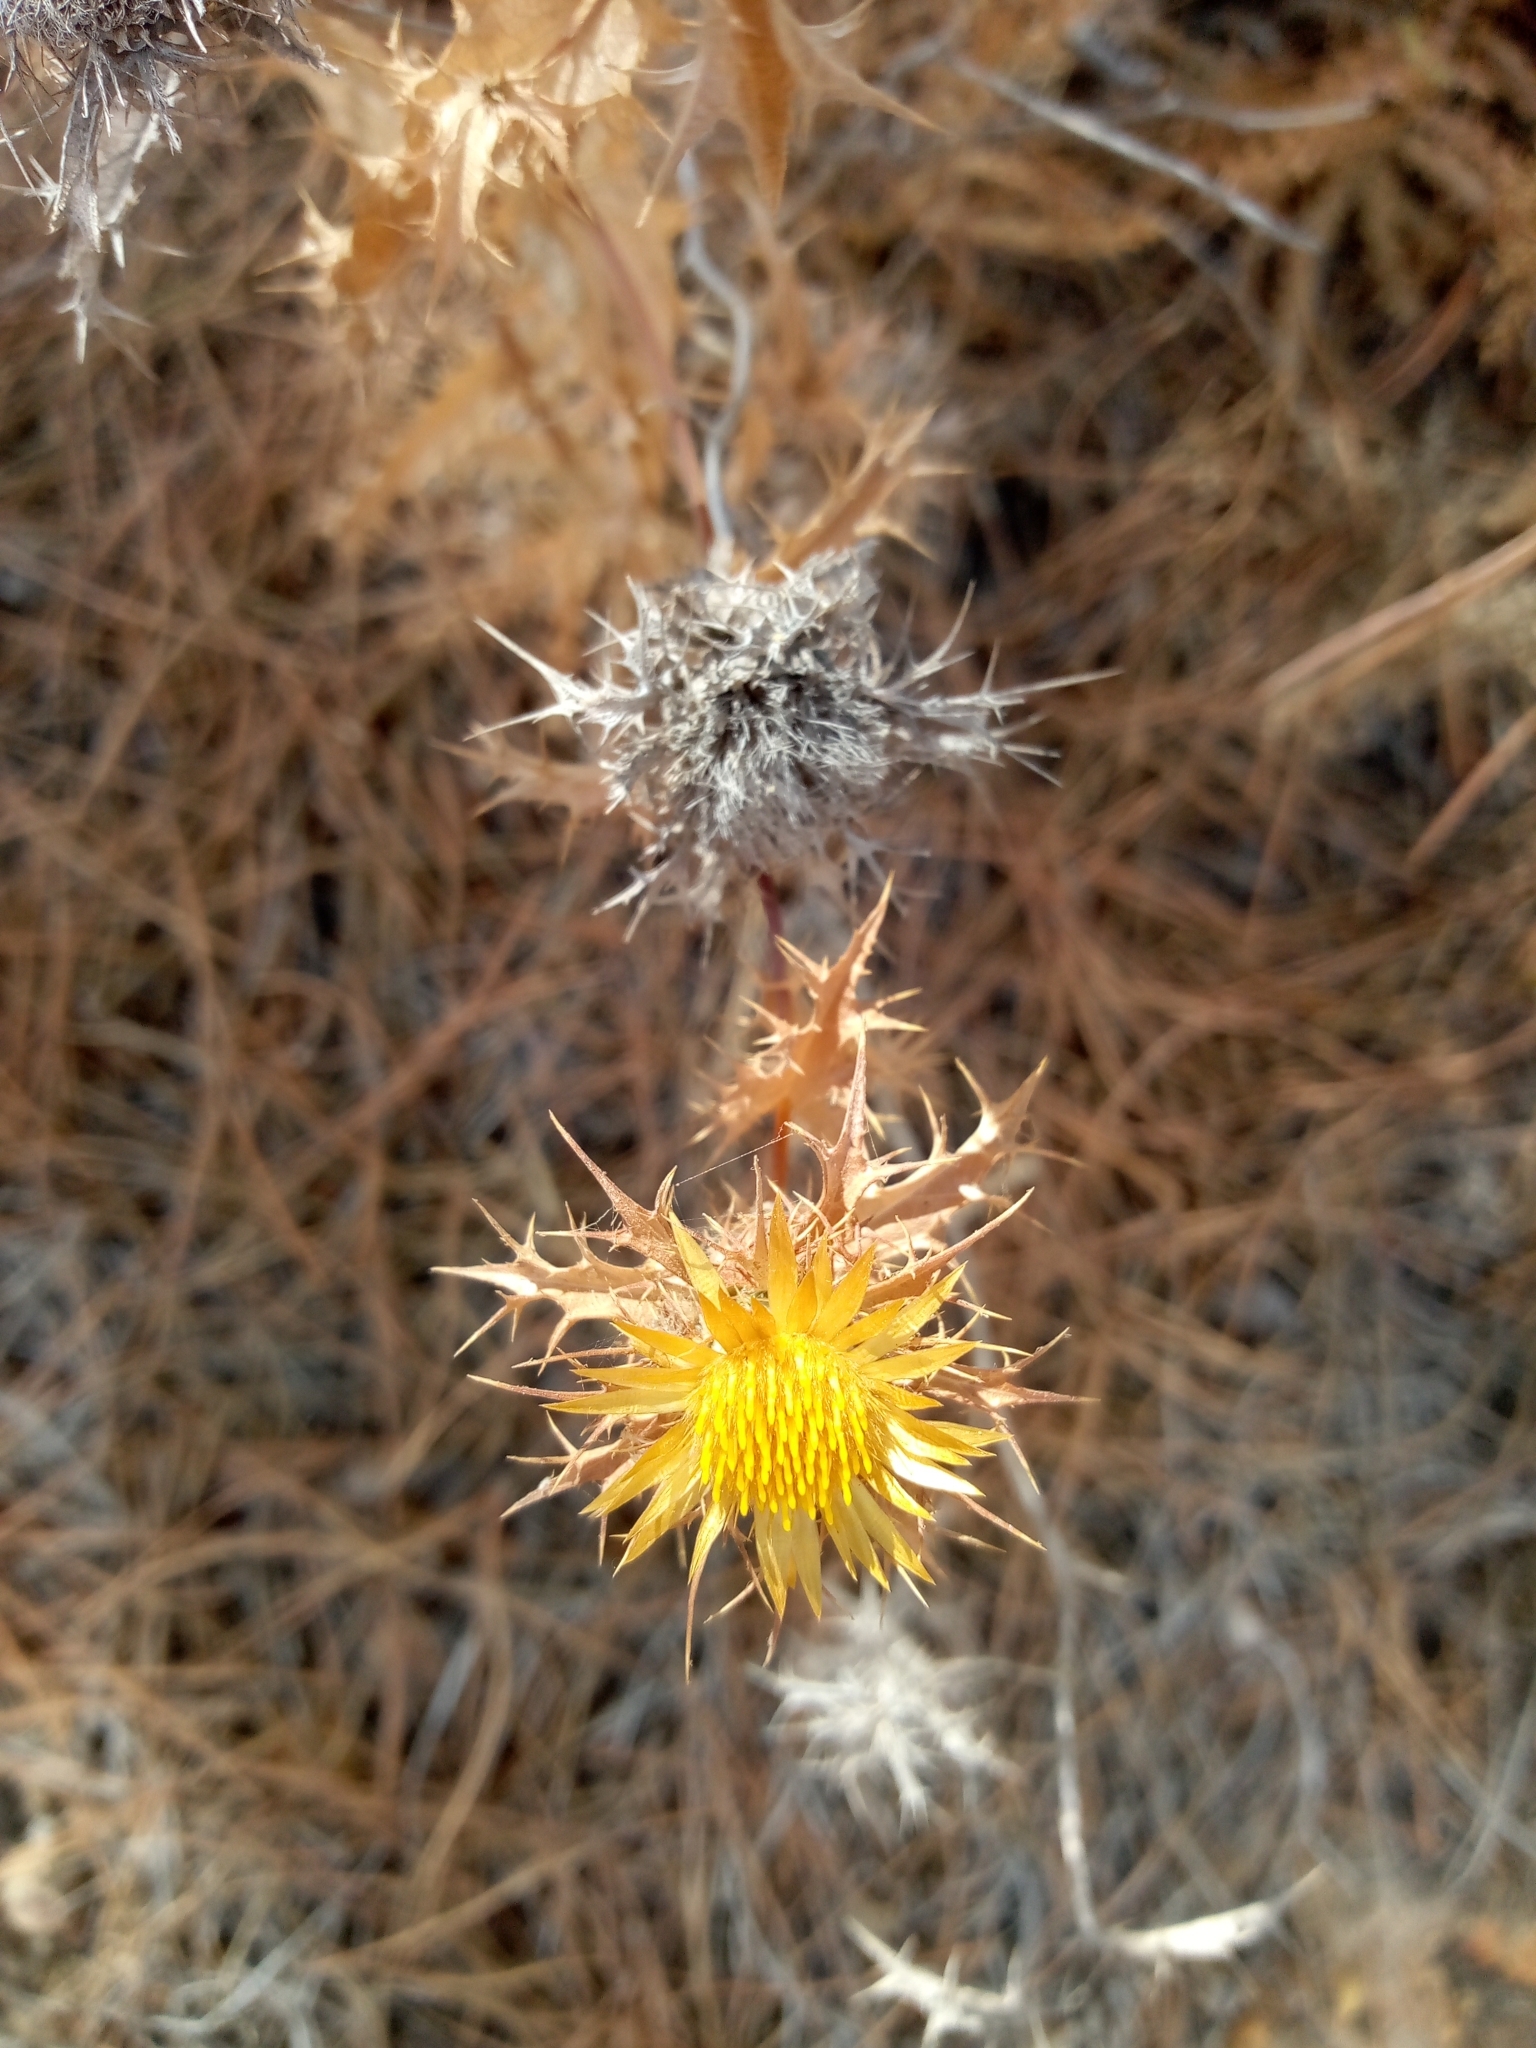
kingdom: Plantae
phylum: Tracheophyta
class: Magnoliopsida
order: Asterales
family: Asteraceae
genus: Carlina
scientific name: Carlina hispanica
